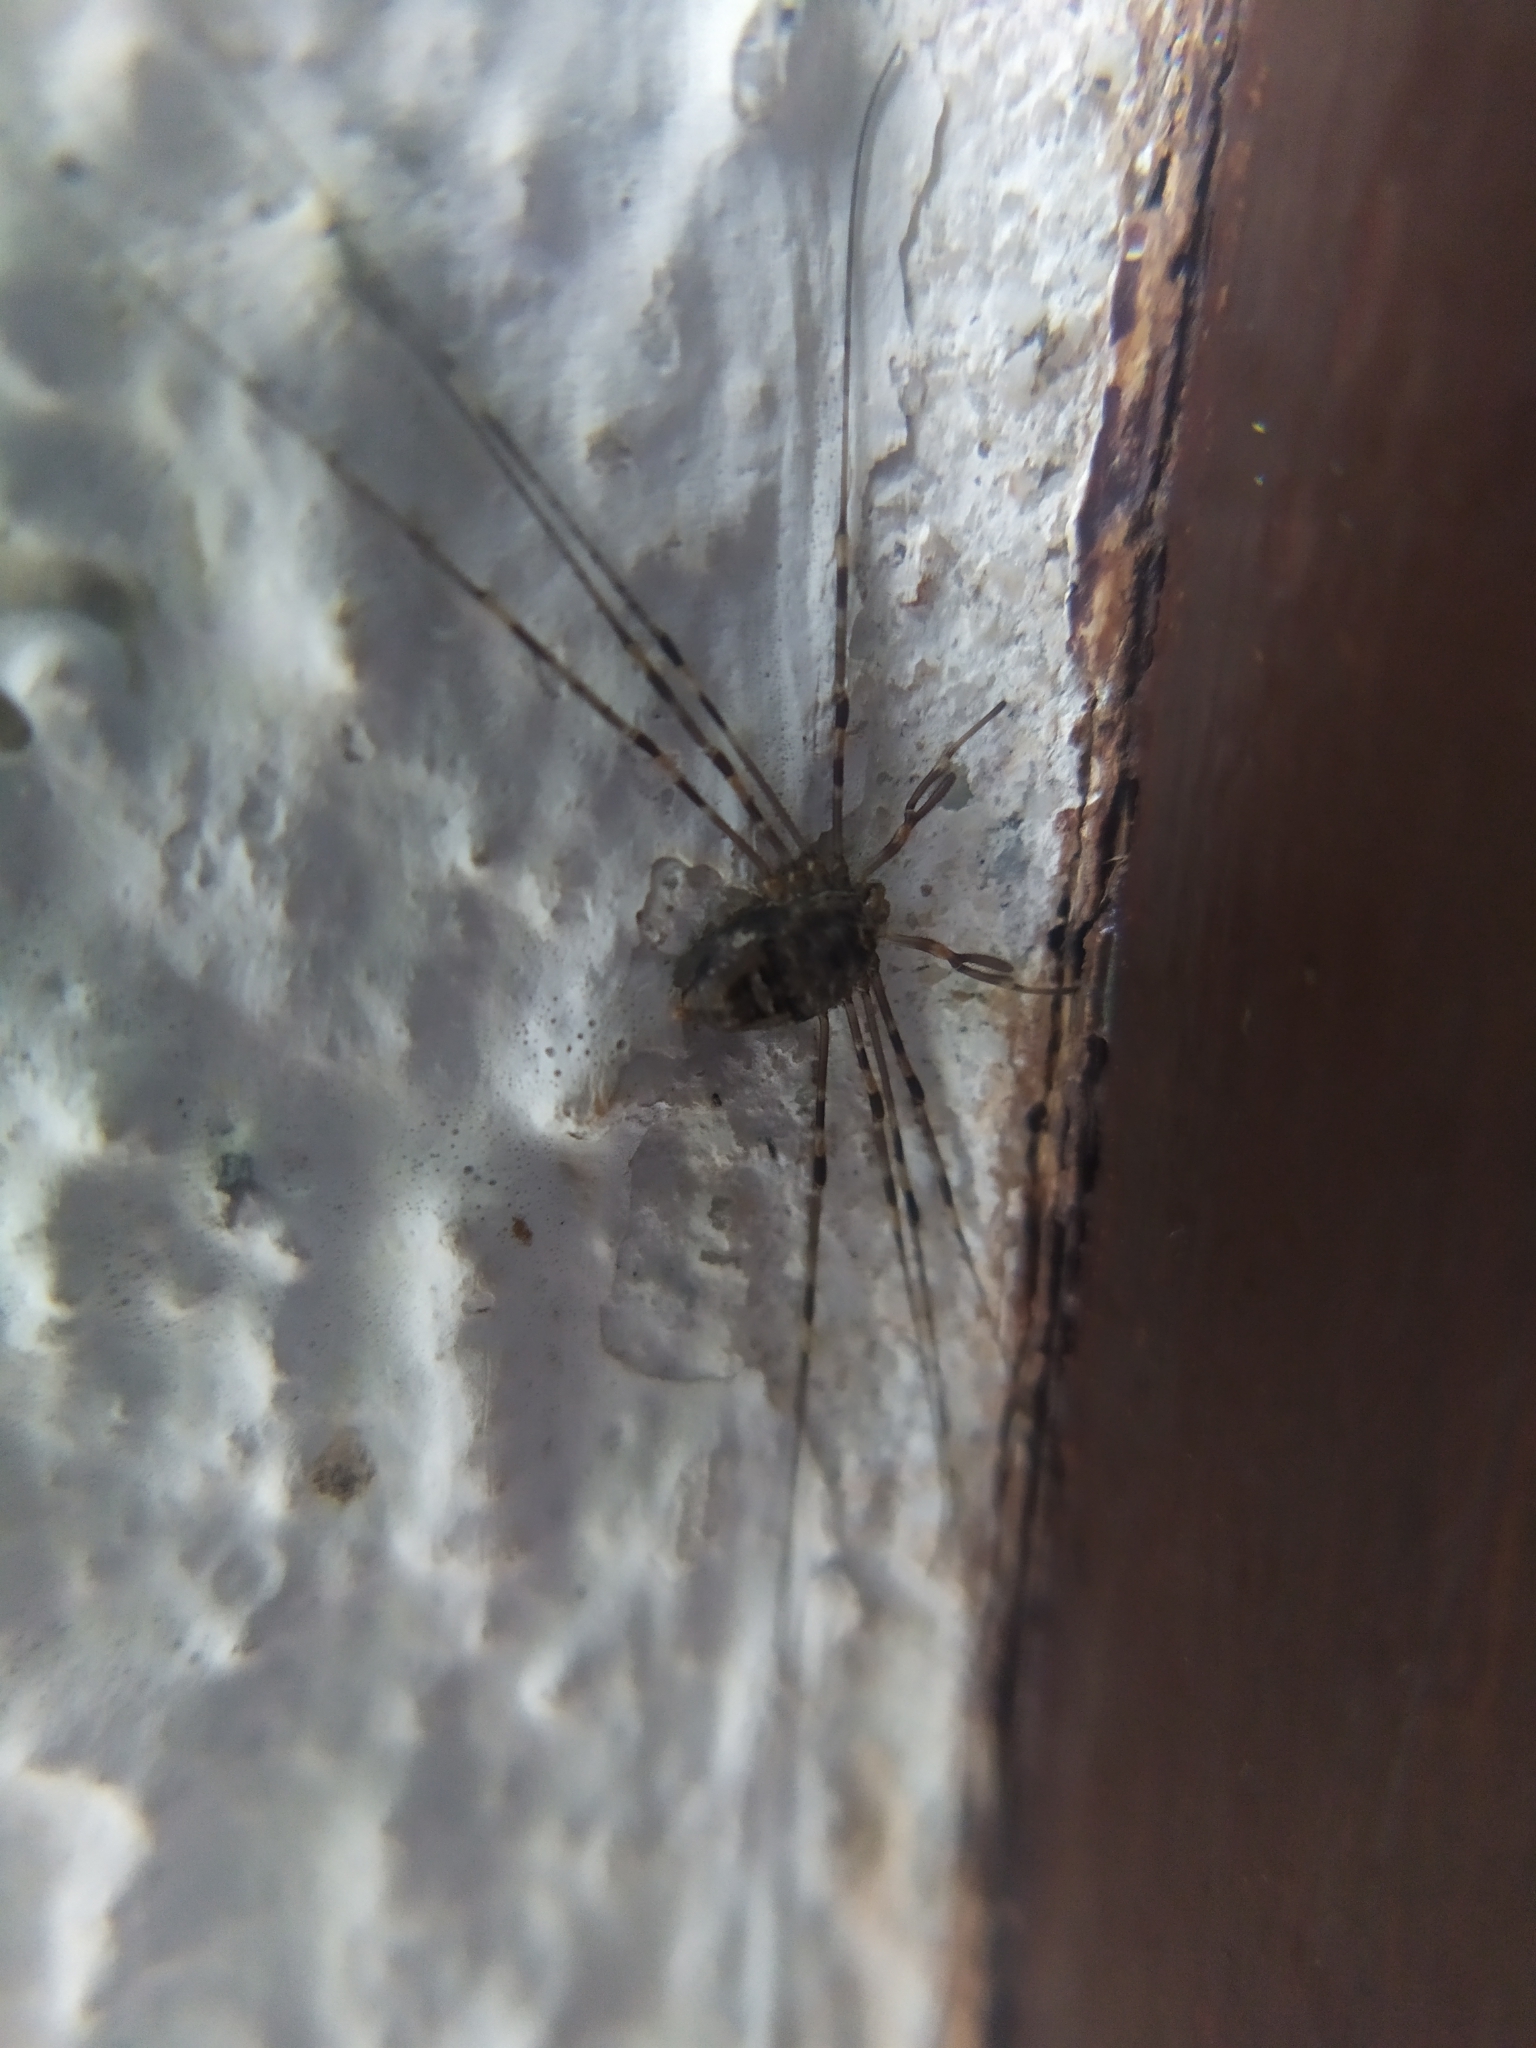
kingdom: Animalia
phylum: Arthropoda
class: Arachnida
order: Opiliones
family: Phalangiidae
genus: Dicranopalpus
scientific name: Dicranopalpus ramosus
